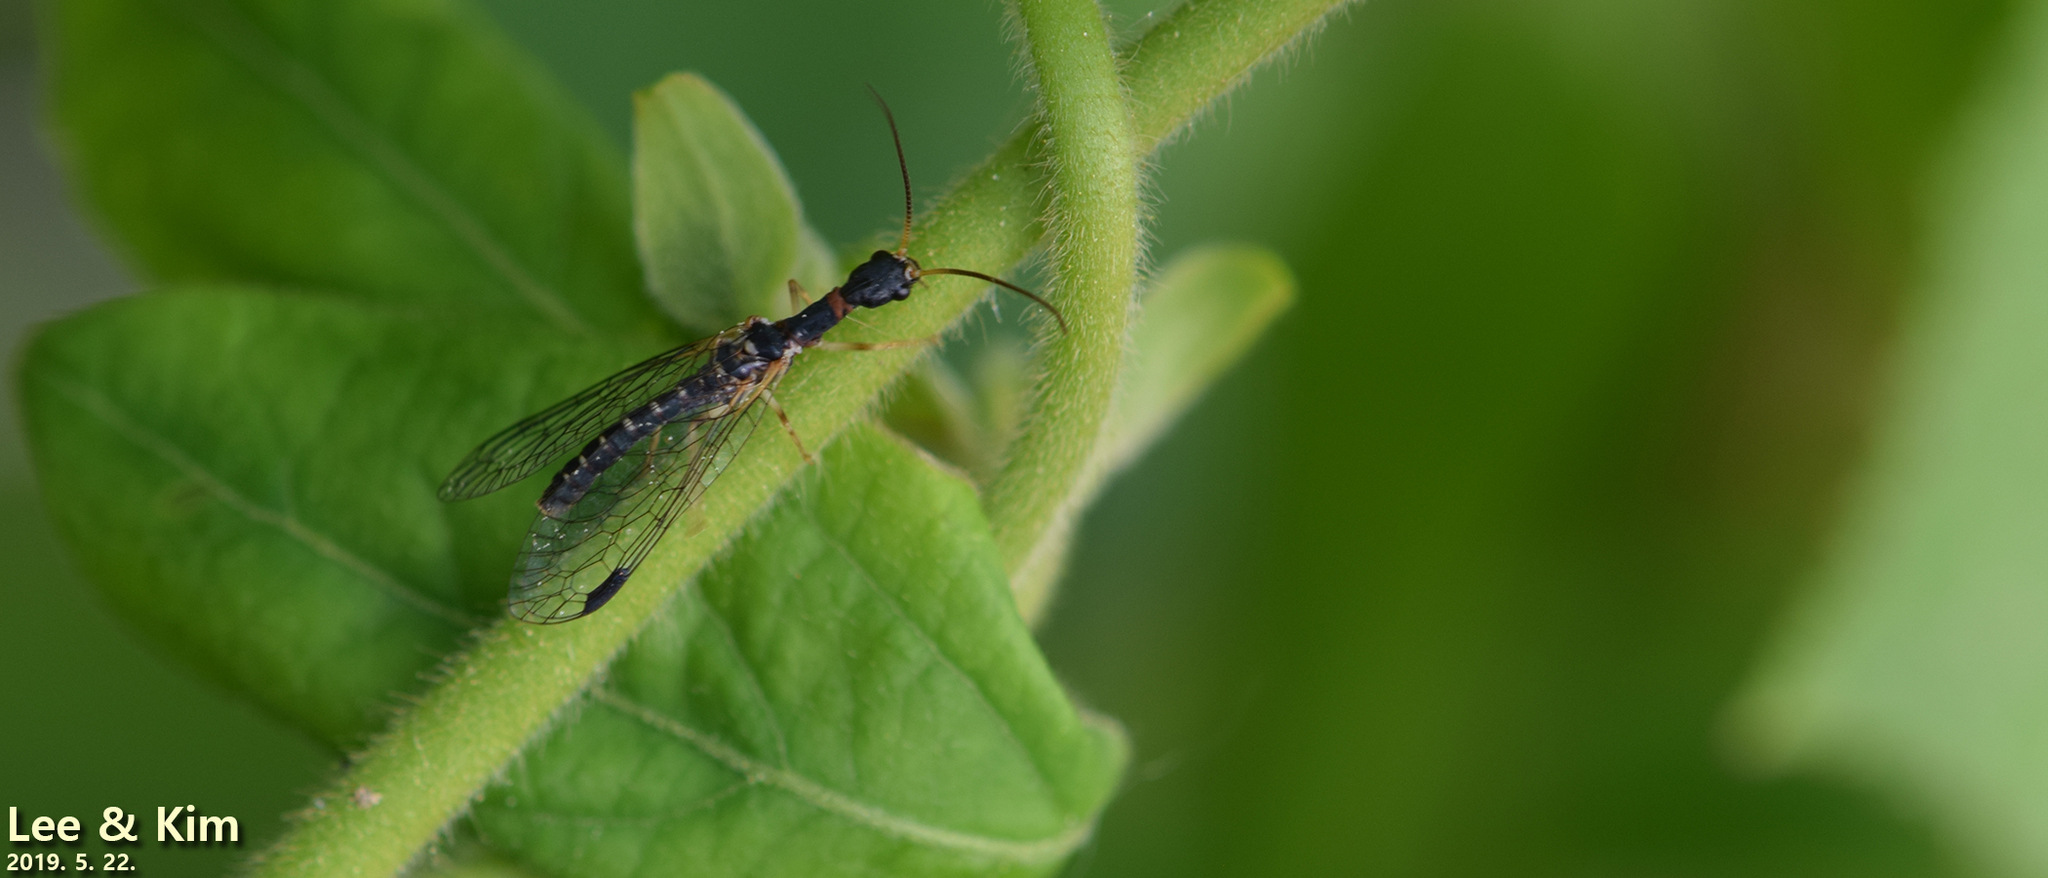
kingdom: Animalia
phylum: Arthropoda
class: Insecta
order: Raphidioptera
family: Inocelliidae
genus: Inocellia
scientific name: Inocellia japonica
